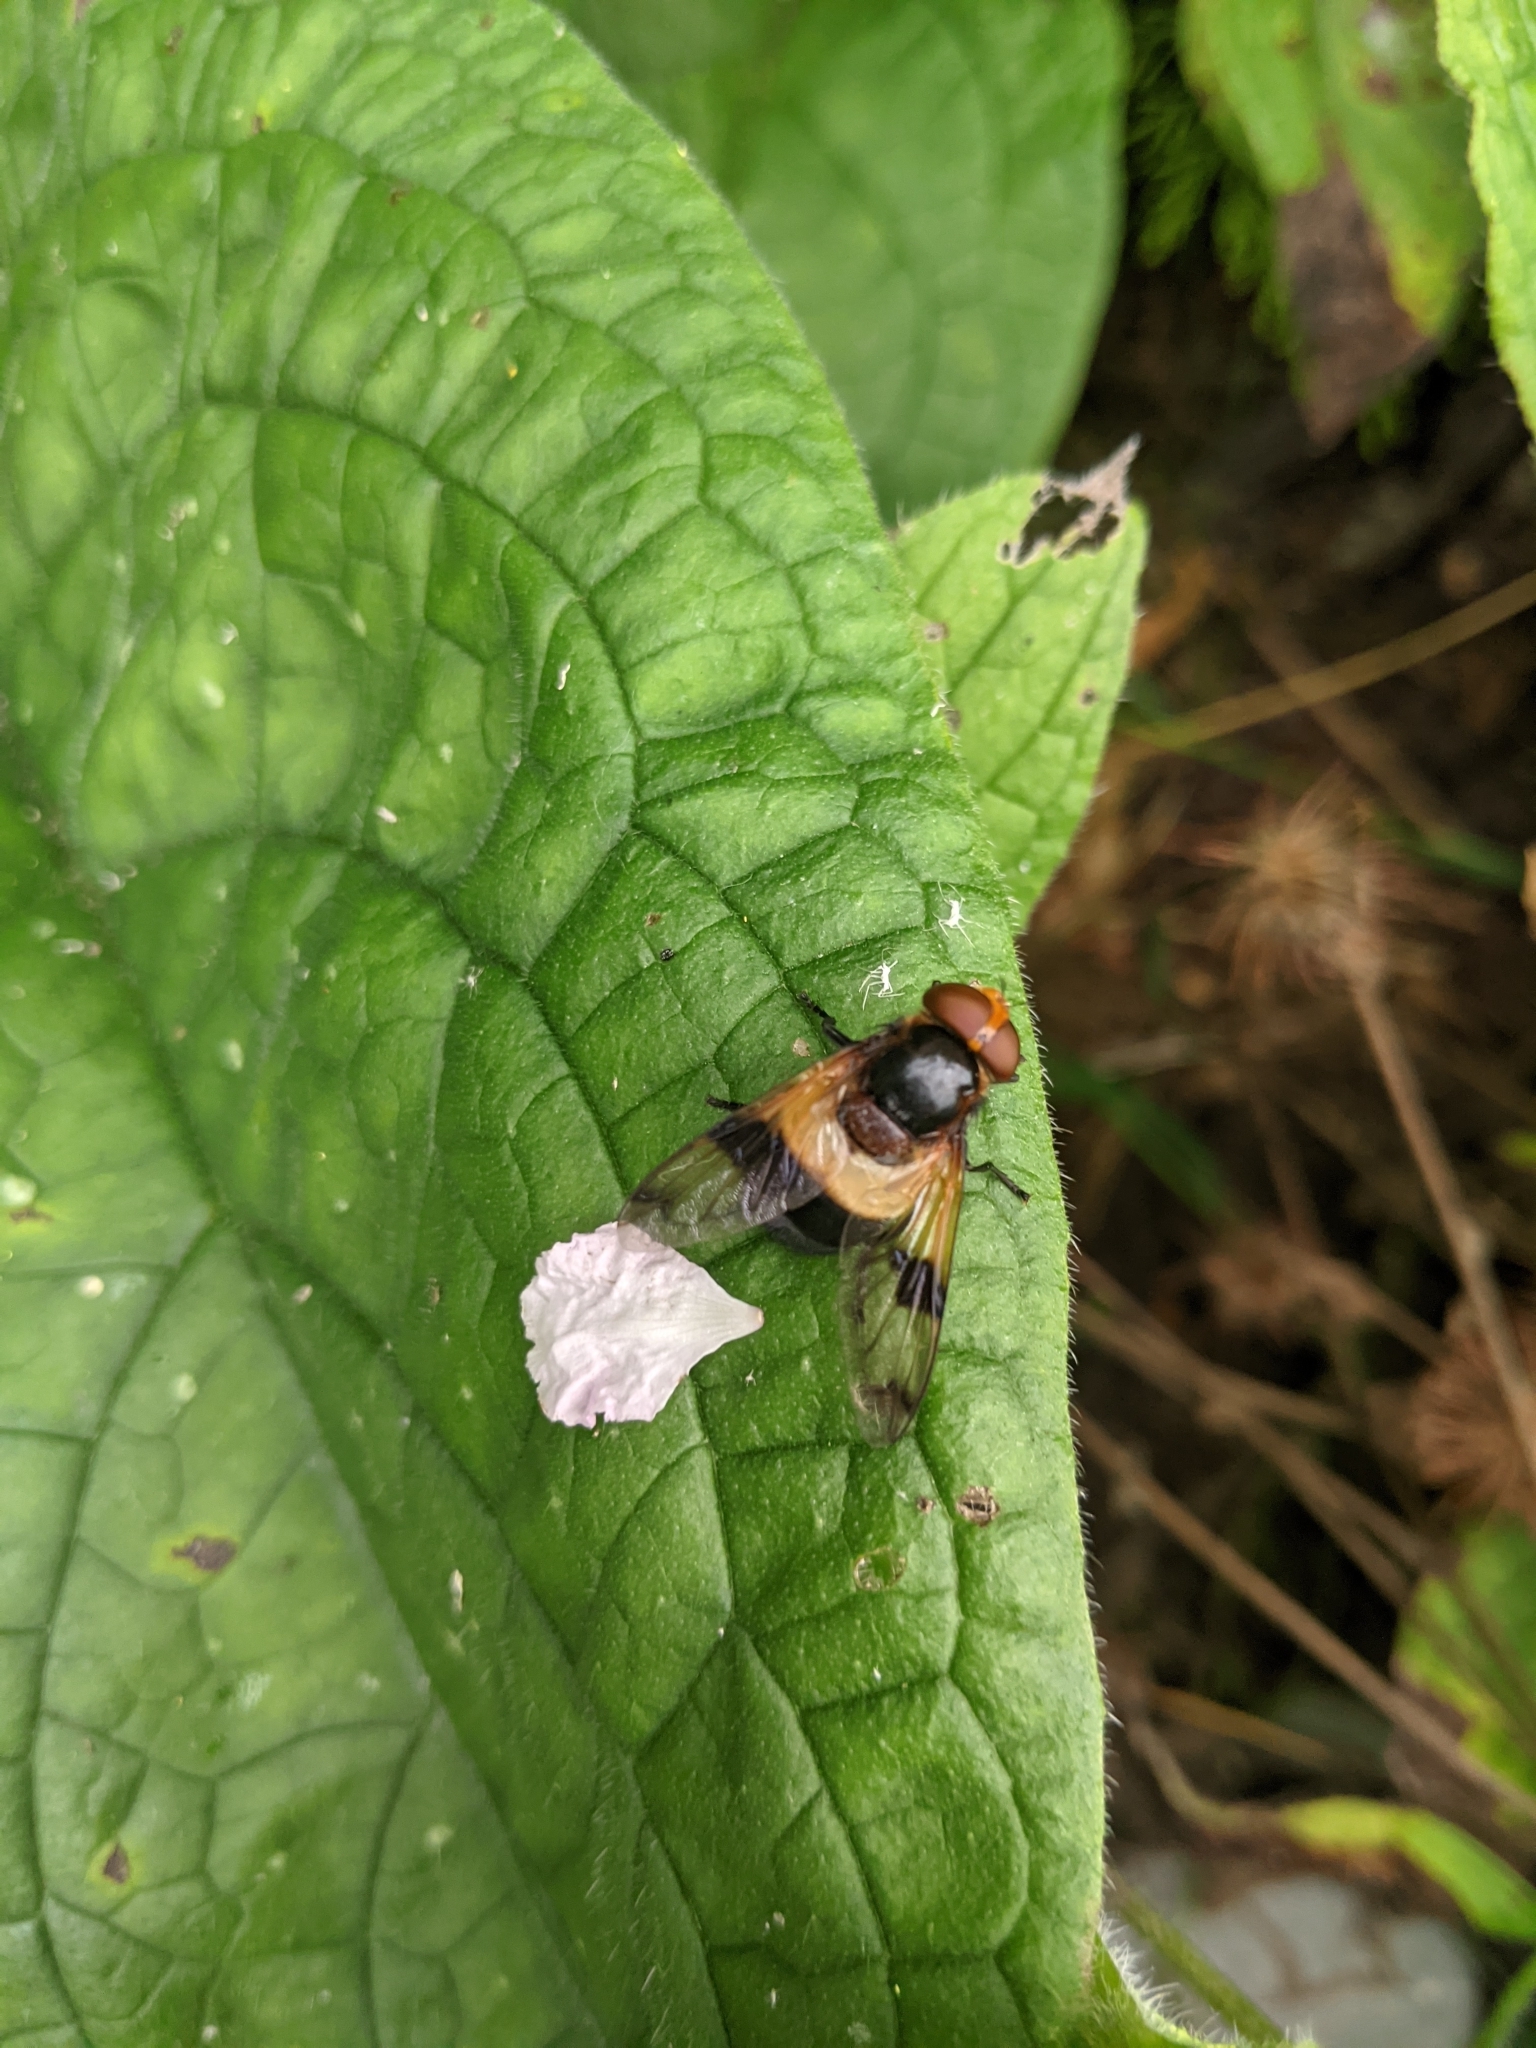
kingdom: Animalia
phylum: Arthropoda
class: Insecta
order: Diptera
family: Syrphidae
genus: Volucella
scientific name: Volucella pellucens
